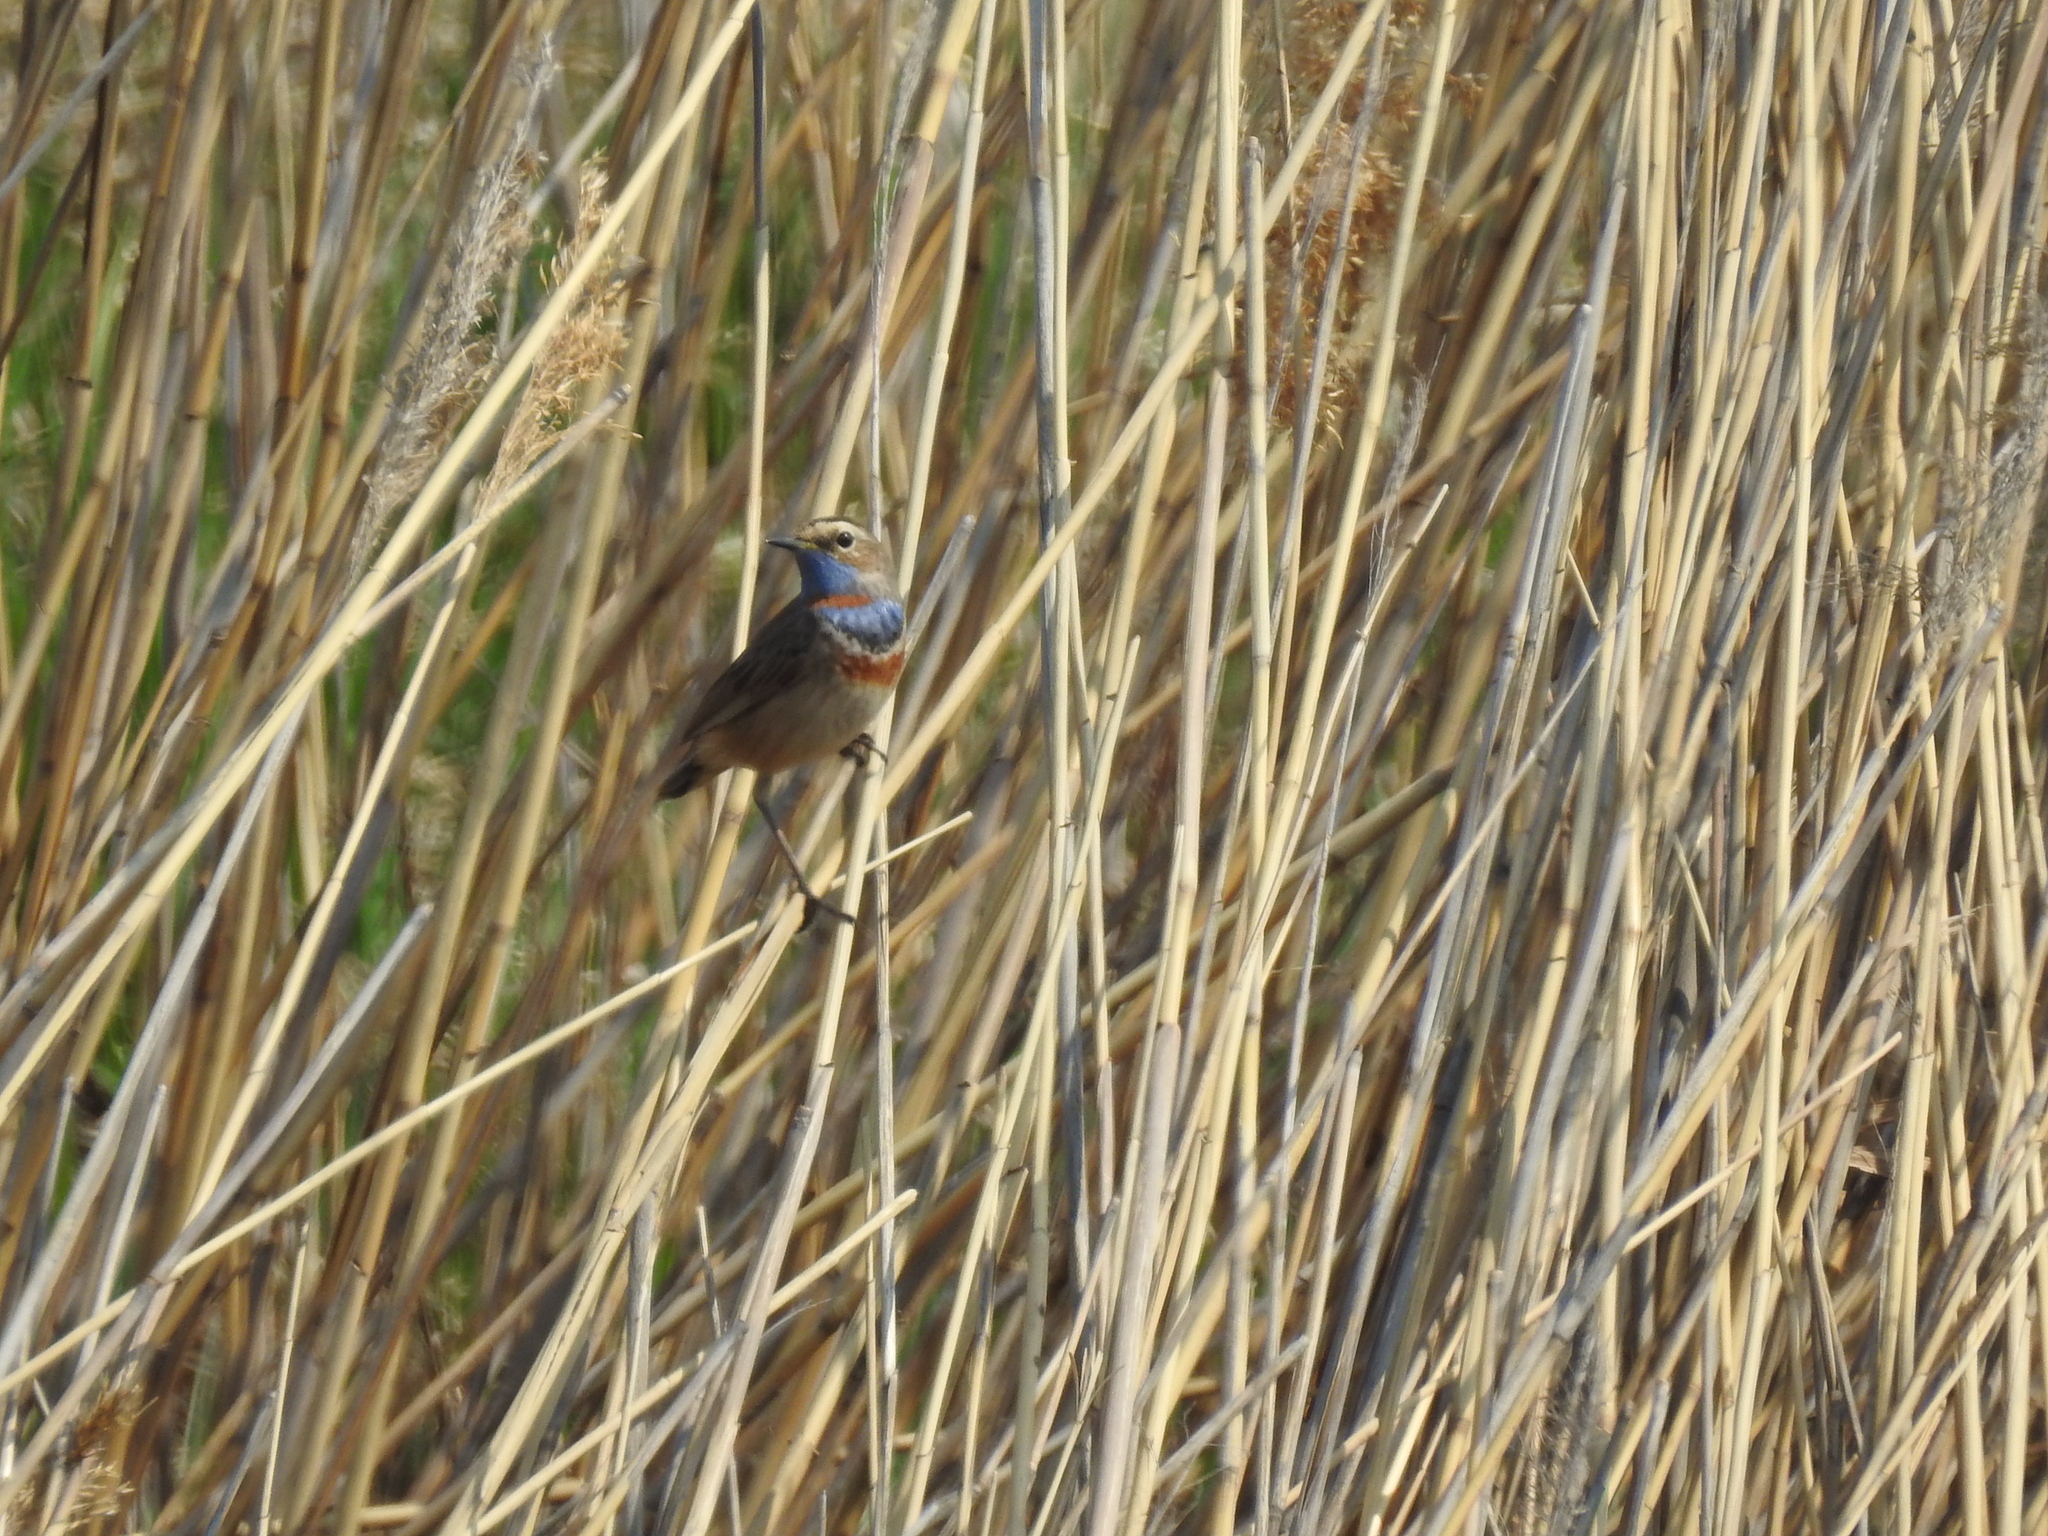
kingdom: Animalia
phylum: Chordata
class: Aves
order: Passeriformes
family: Muscicapidae
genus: Luscinia
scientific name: Luscinia svecica
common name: Bluethroat
